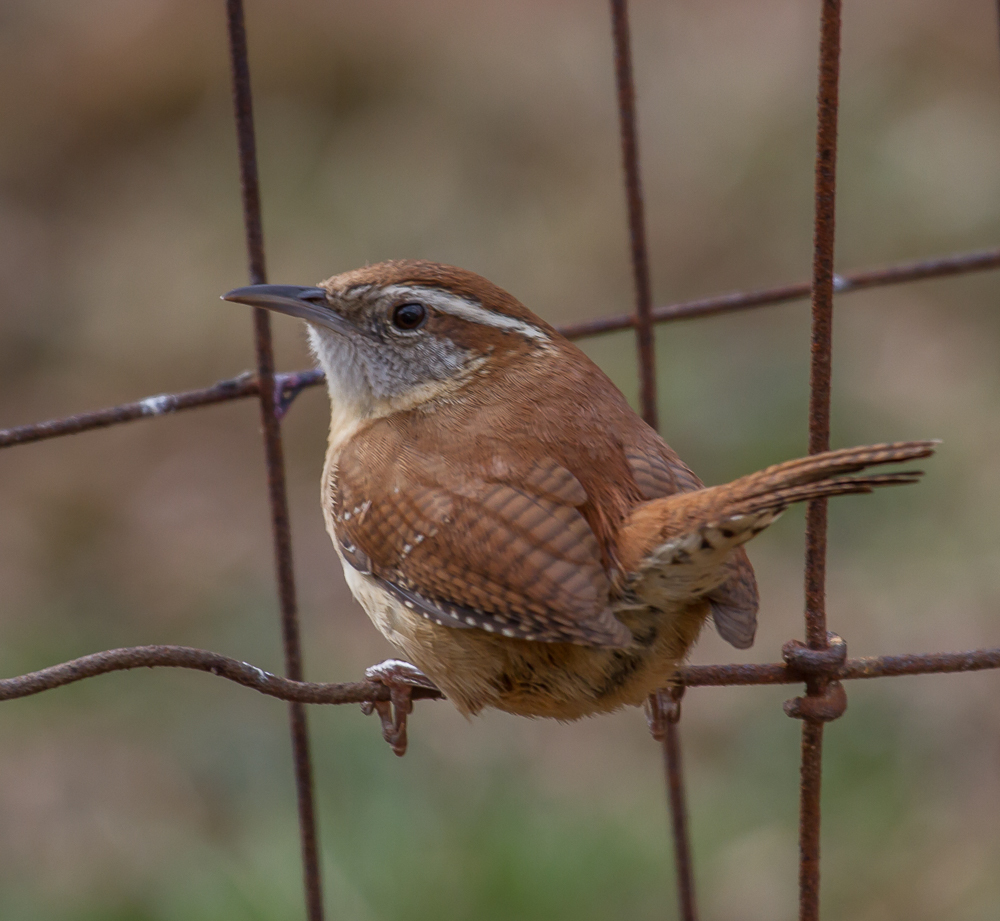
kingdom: Animalia
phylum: Chordata
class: Aves
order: Passeriformes
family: Troglodytidae
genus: Thryothorus
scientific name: Thryothorus ludovicianus
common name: Carolina wren
